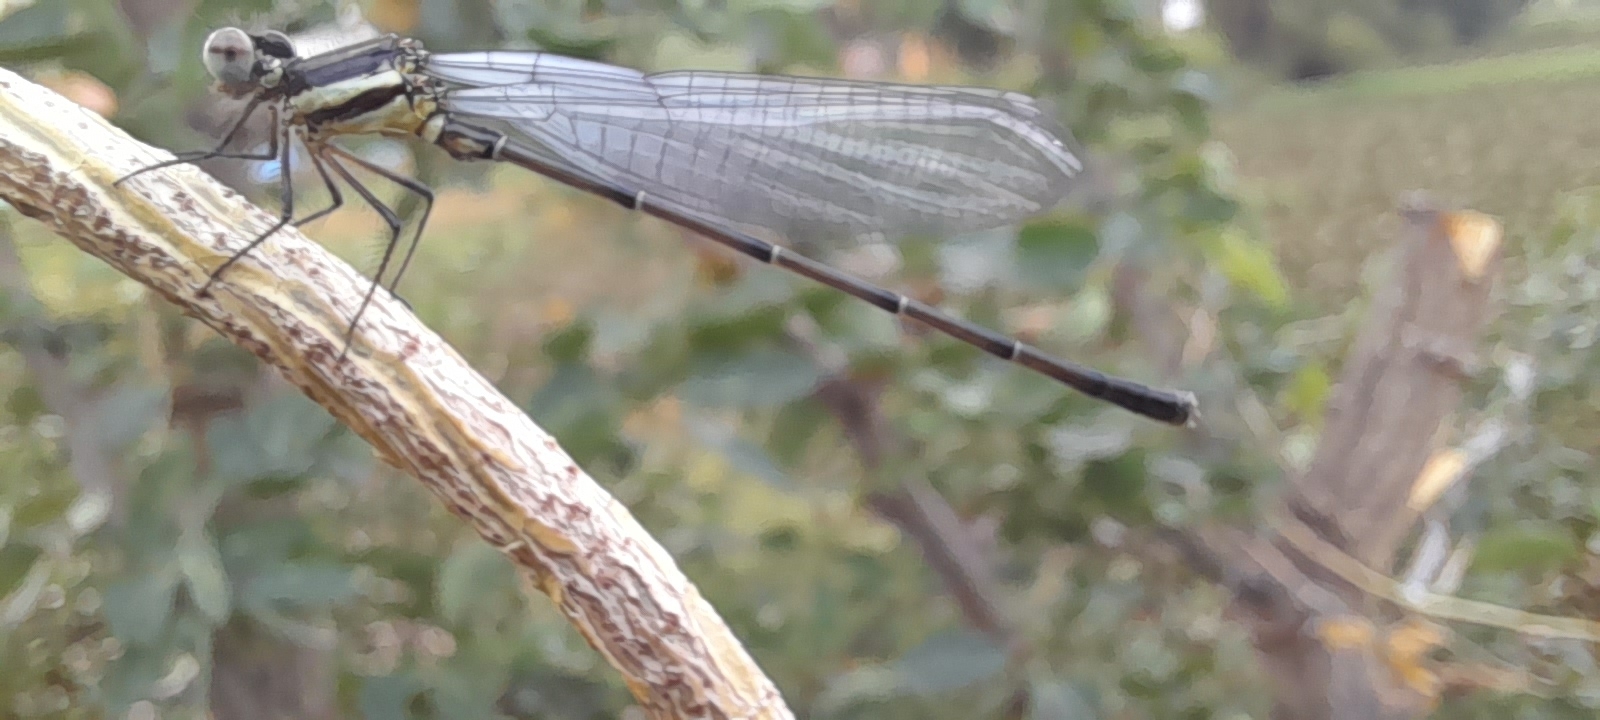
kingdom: Animalia
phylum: Arthropoda
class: Insecta
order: Odonata
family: Platycnemididae
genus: Onychargia
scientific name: Onychargia atrocyana
